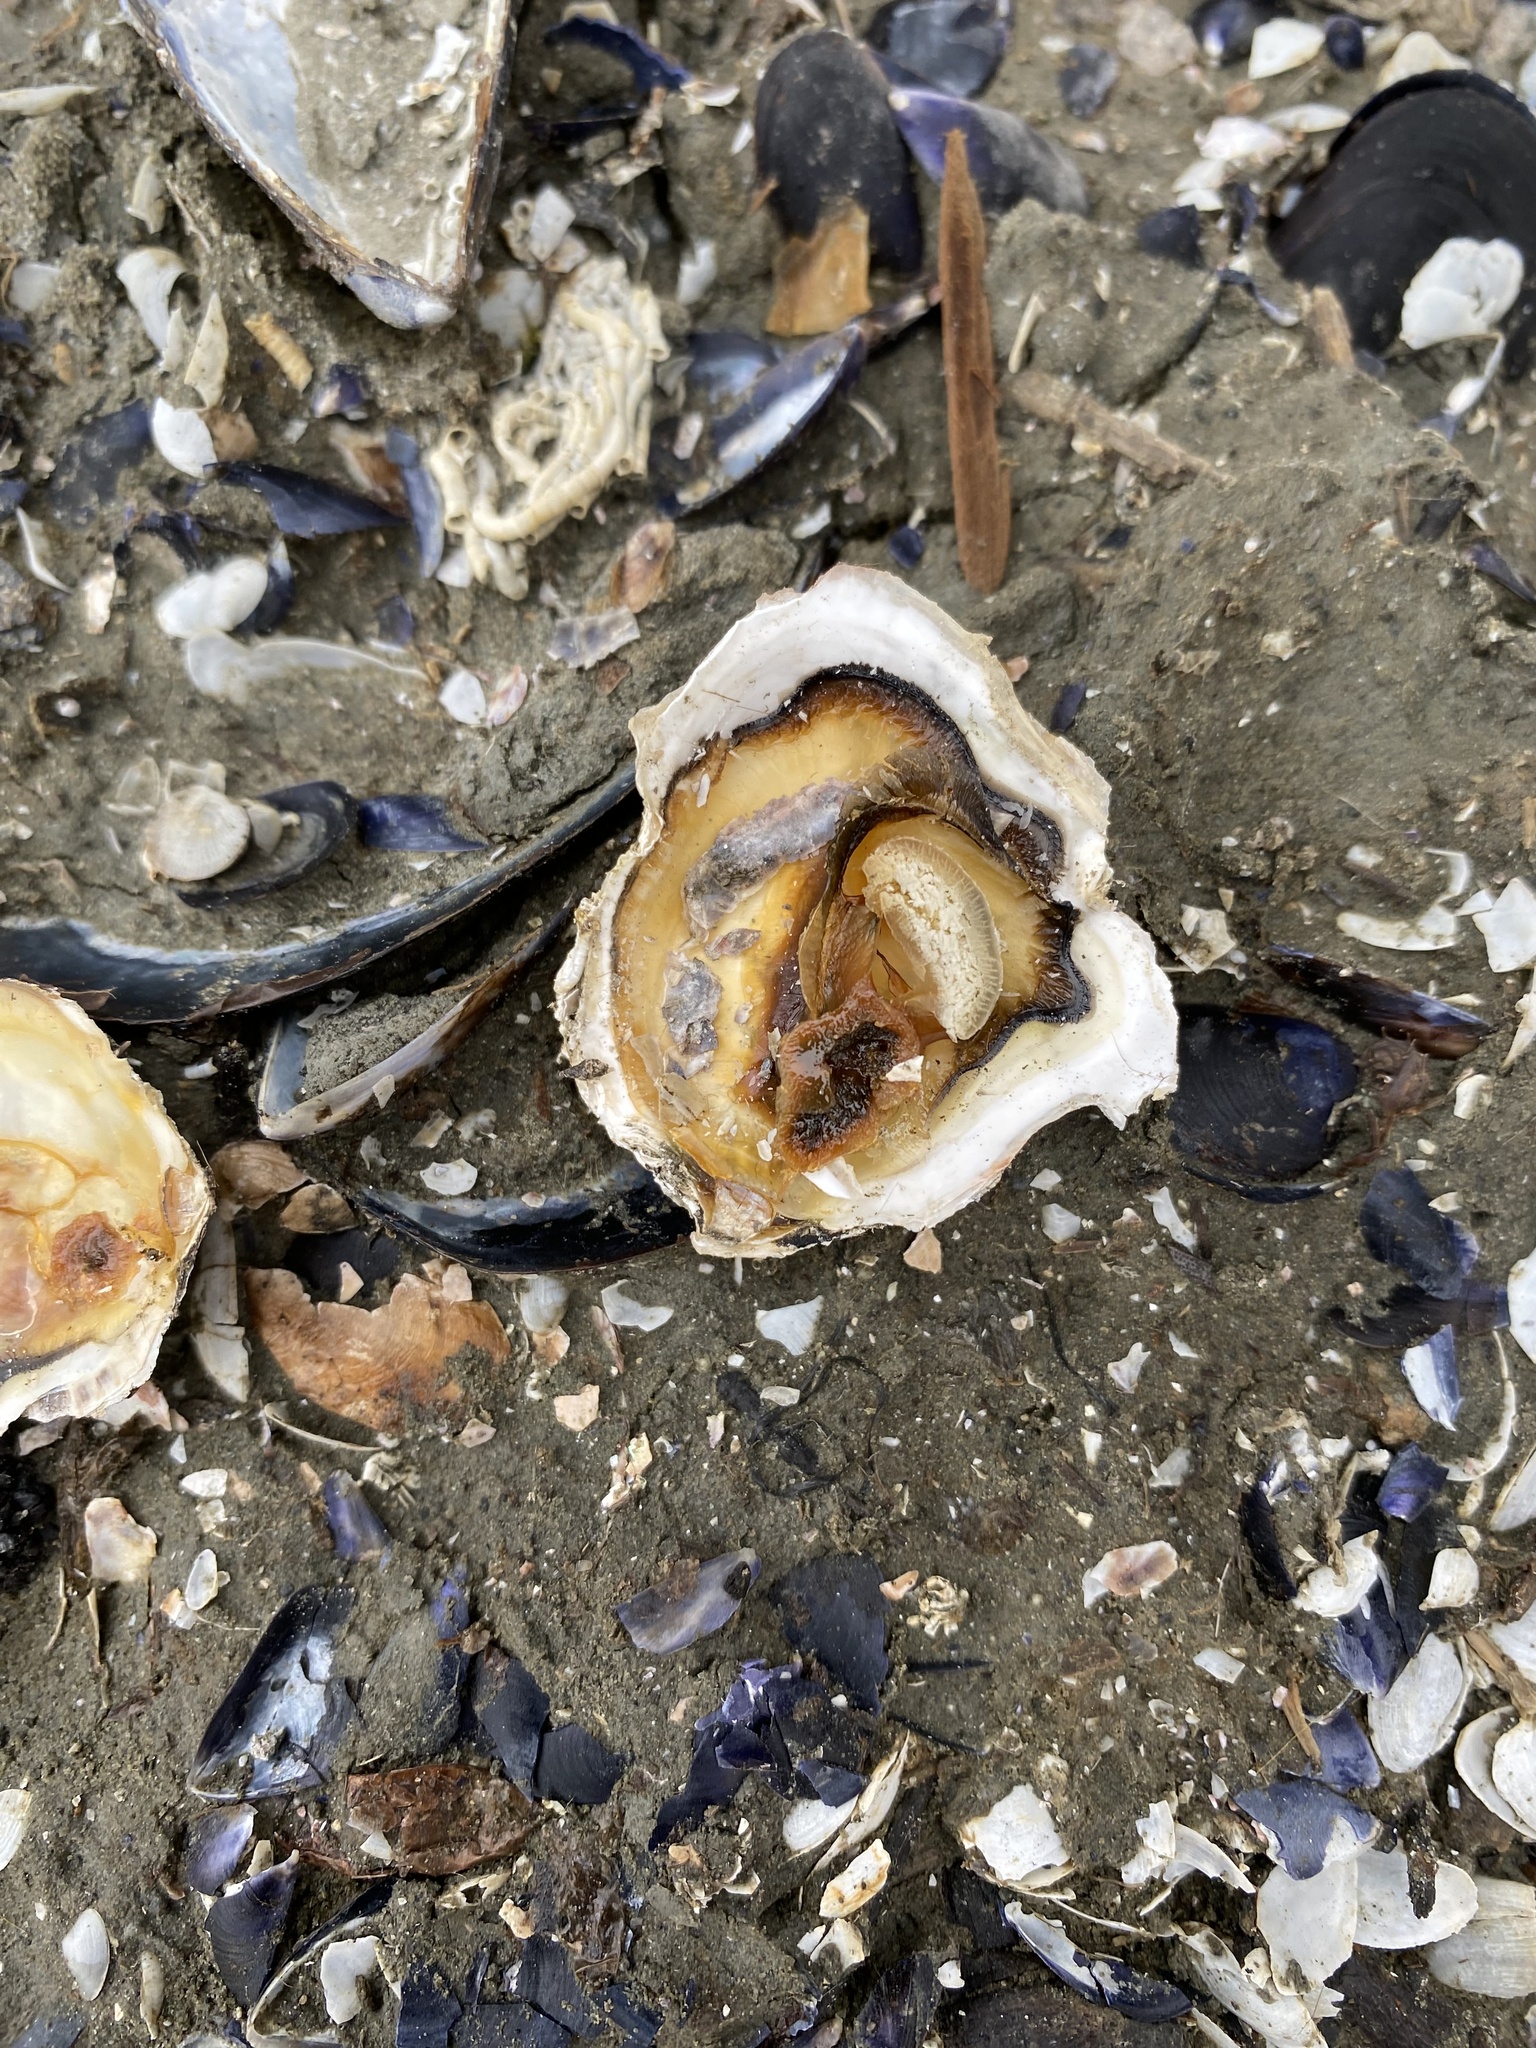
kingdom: Animalia
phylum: Mollusca
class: Bivalvia
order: Ostreida
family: Ostreidae
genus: Ostrea
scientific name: Ostrea lurida
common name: Olympia flat oyster
